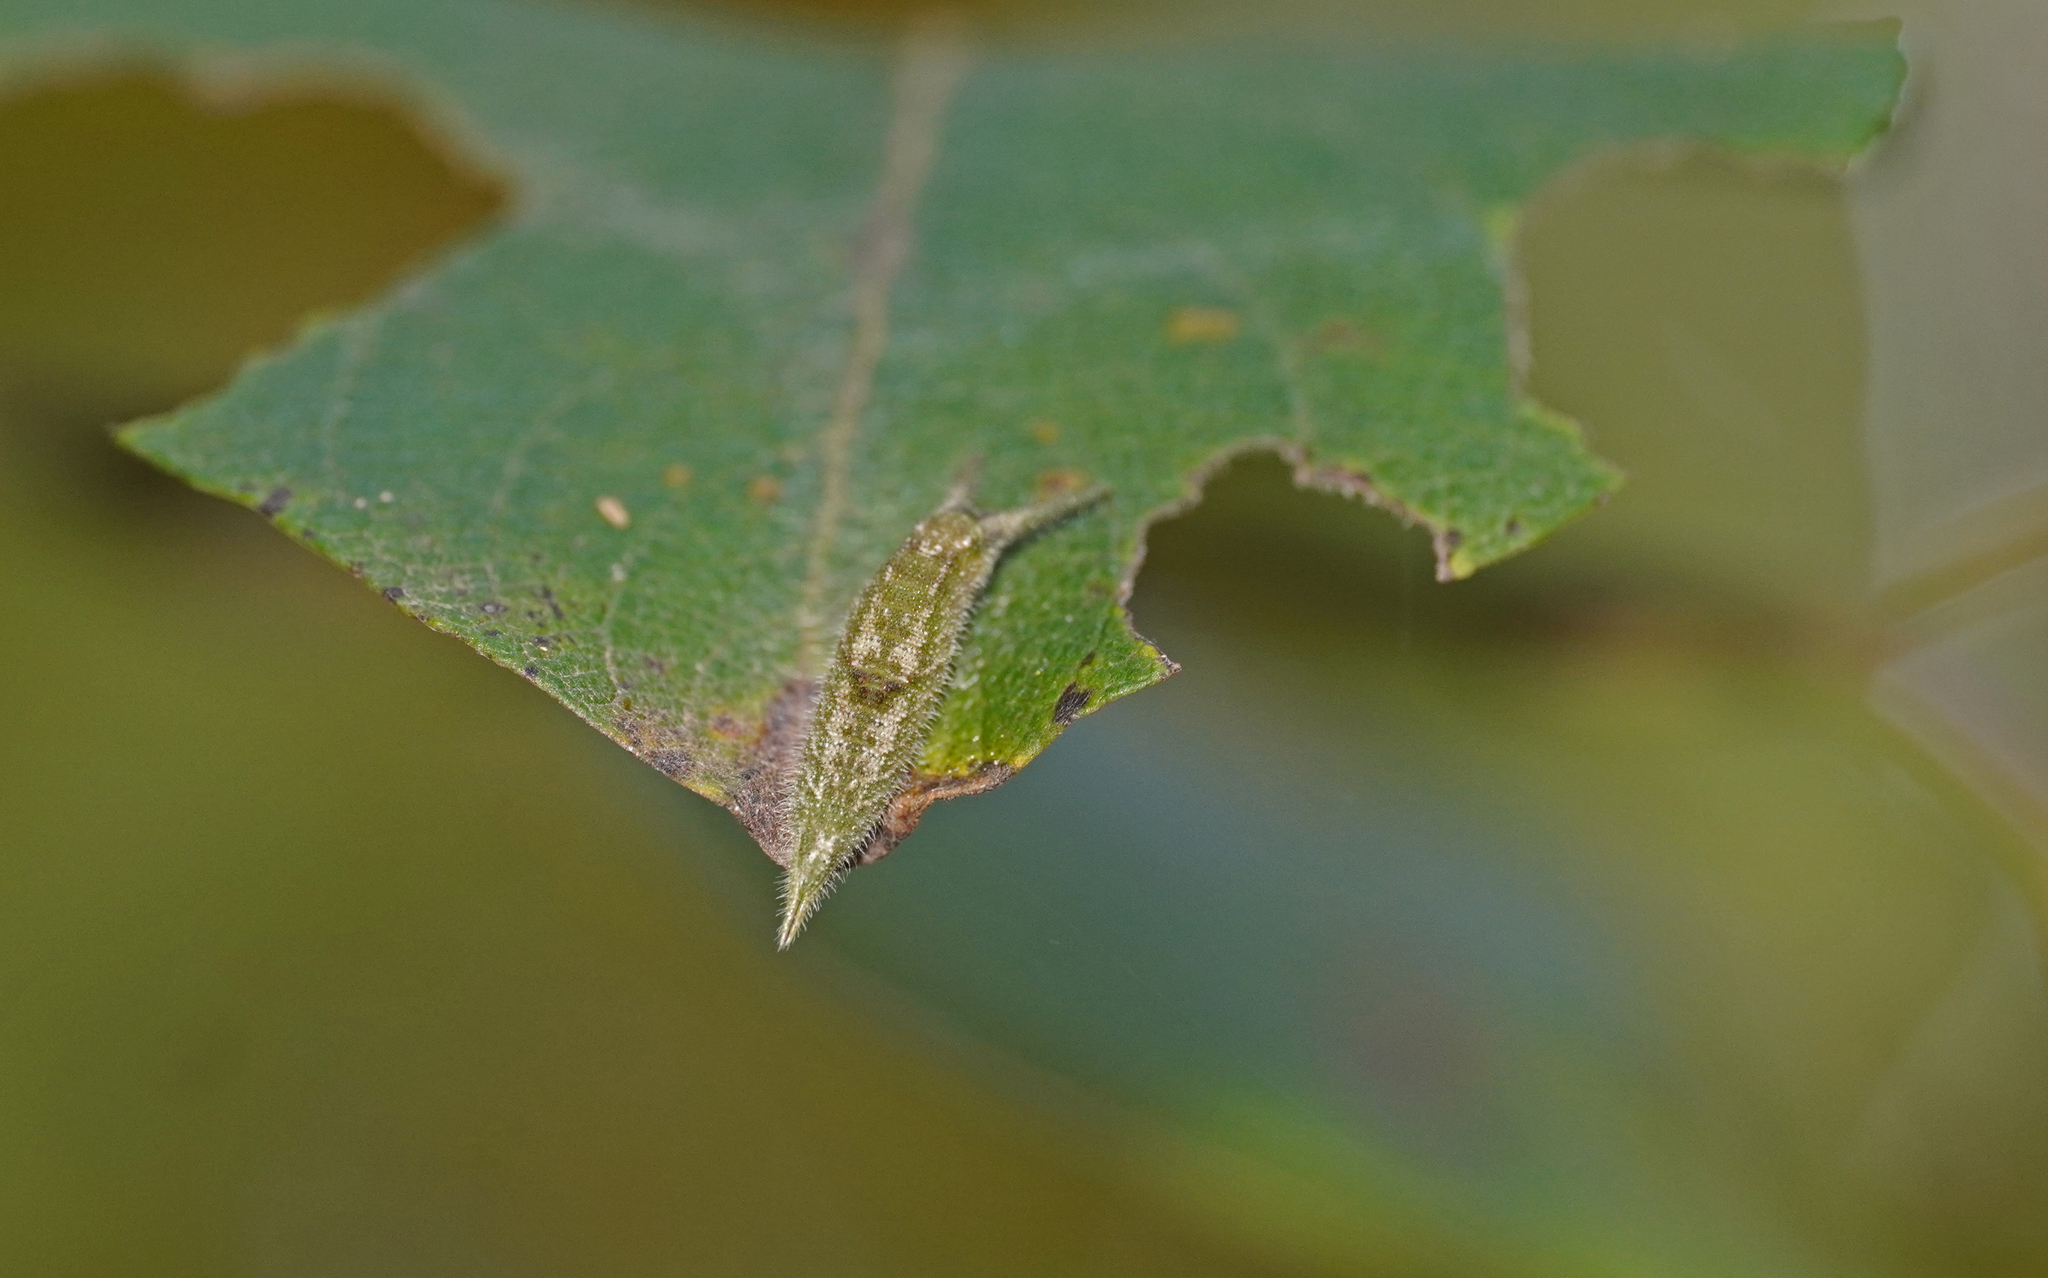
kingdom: Animalia
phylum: Arthropoda
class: Insecta
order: Lepidoptera
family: Nymphalidae
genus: Apatura
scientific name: Apatura iris
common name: Purple emperor
